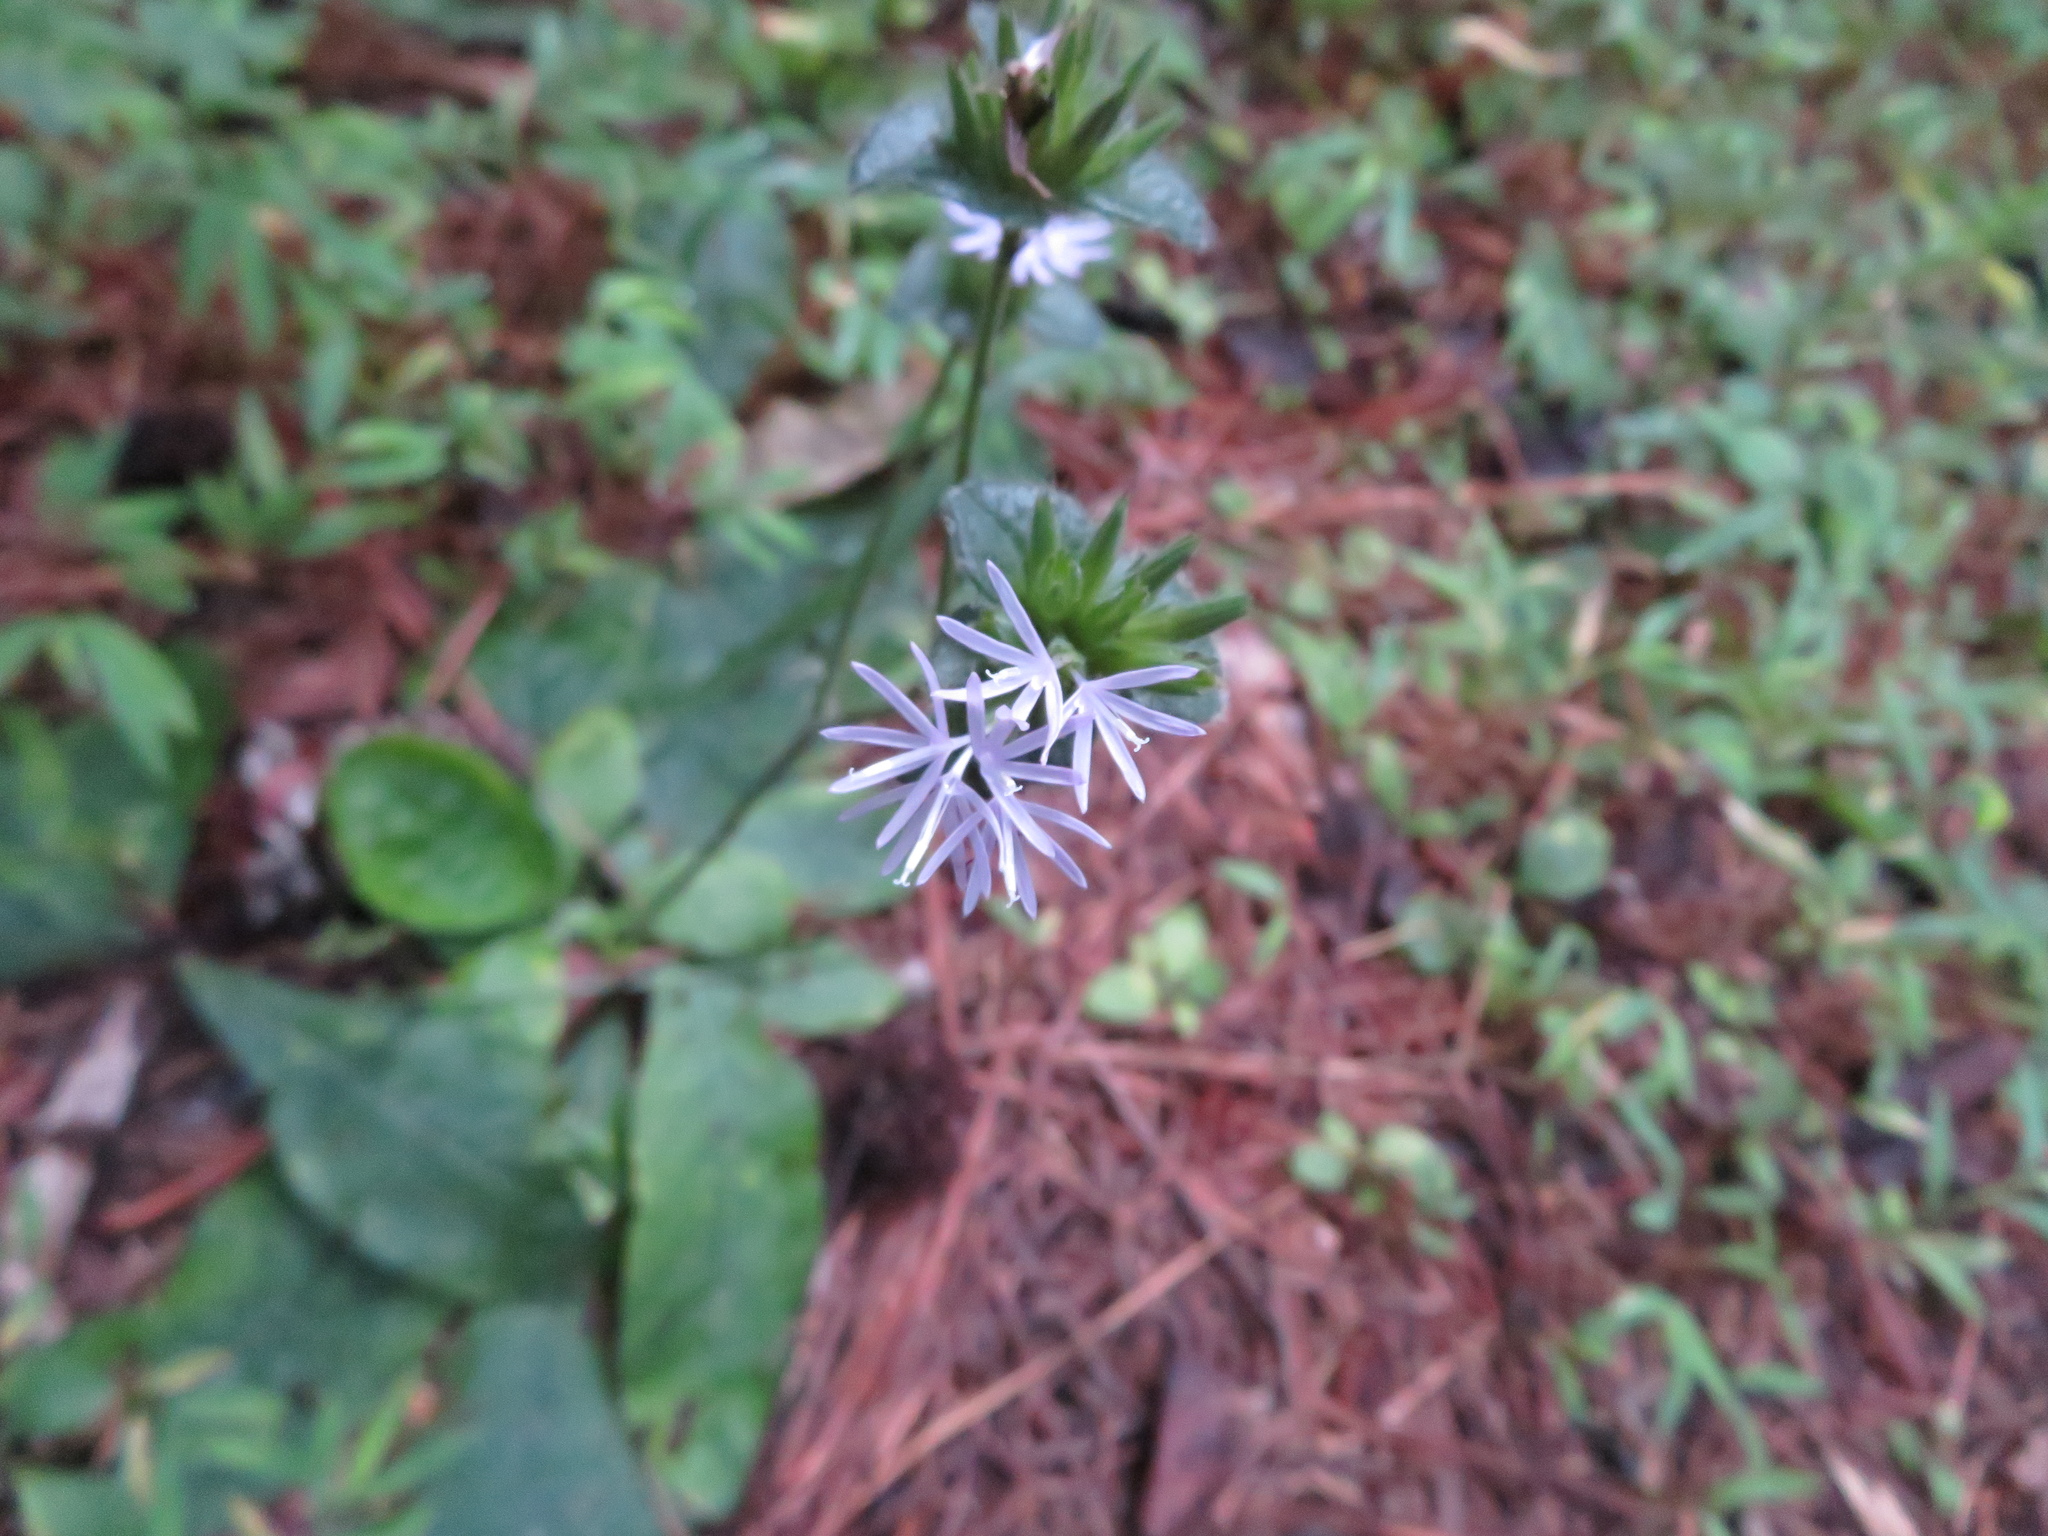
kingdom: Plantae
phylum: Tracheophyta
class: Magnoliopsida
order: Asterales
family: Asteraceae
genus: Elephantopus
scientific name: Elephantopus tomentosus
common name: Tobacco-weed
